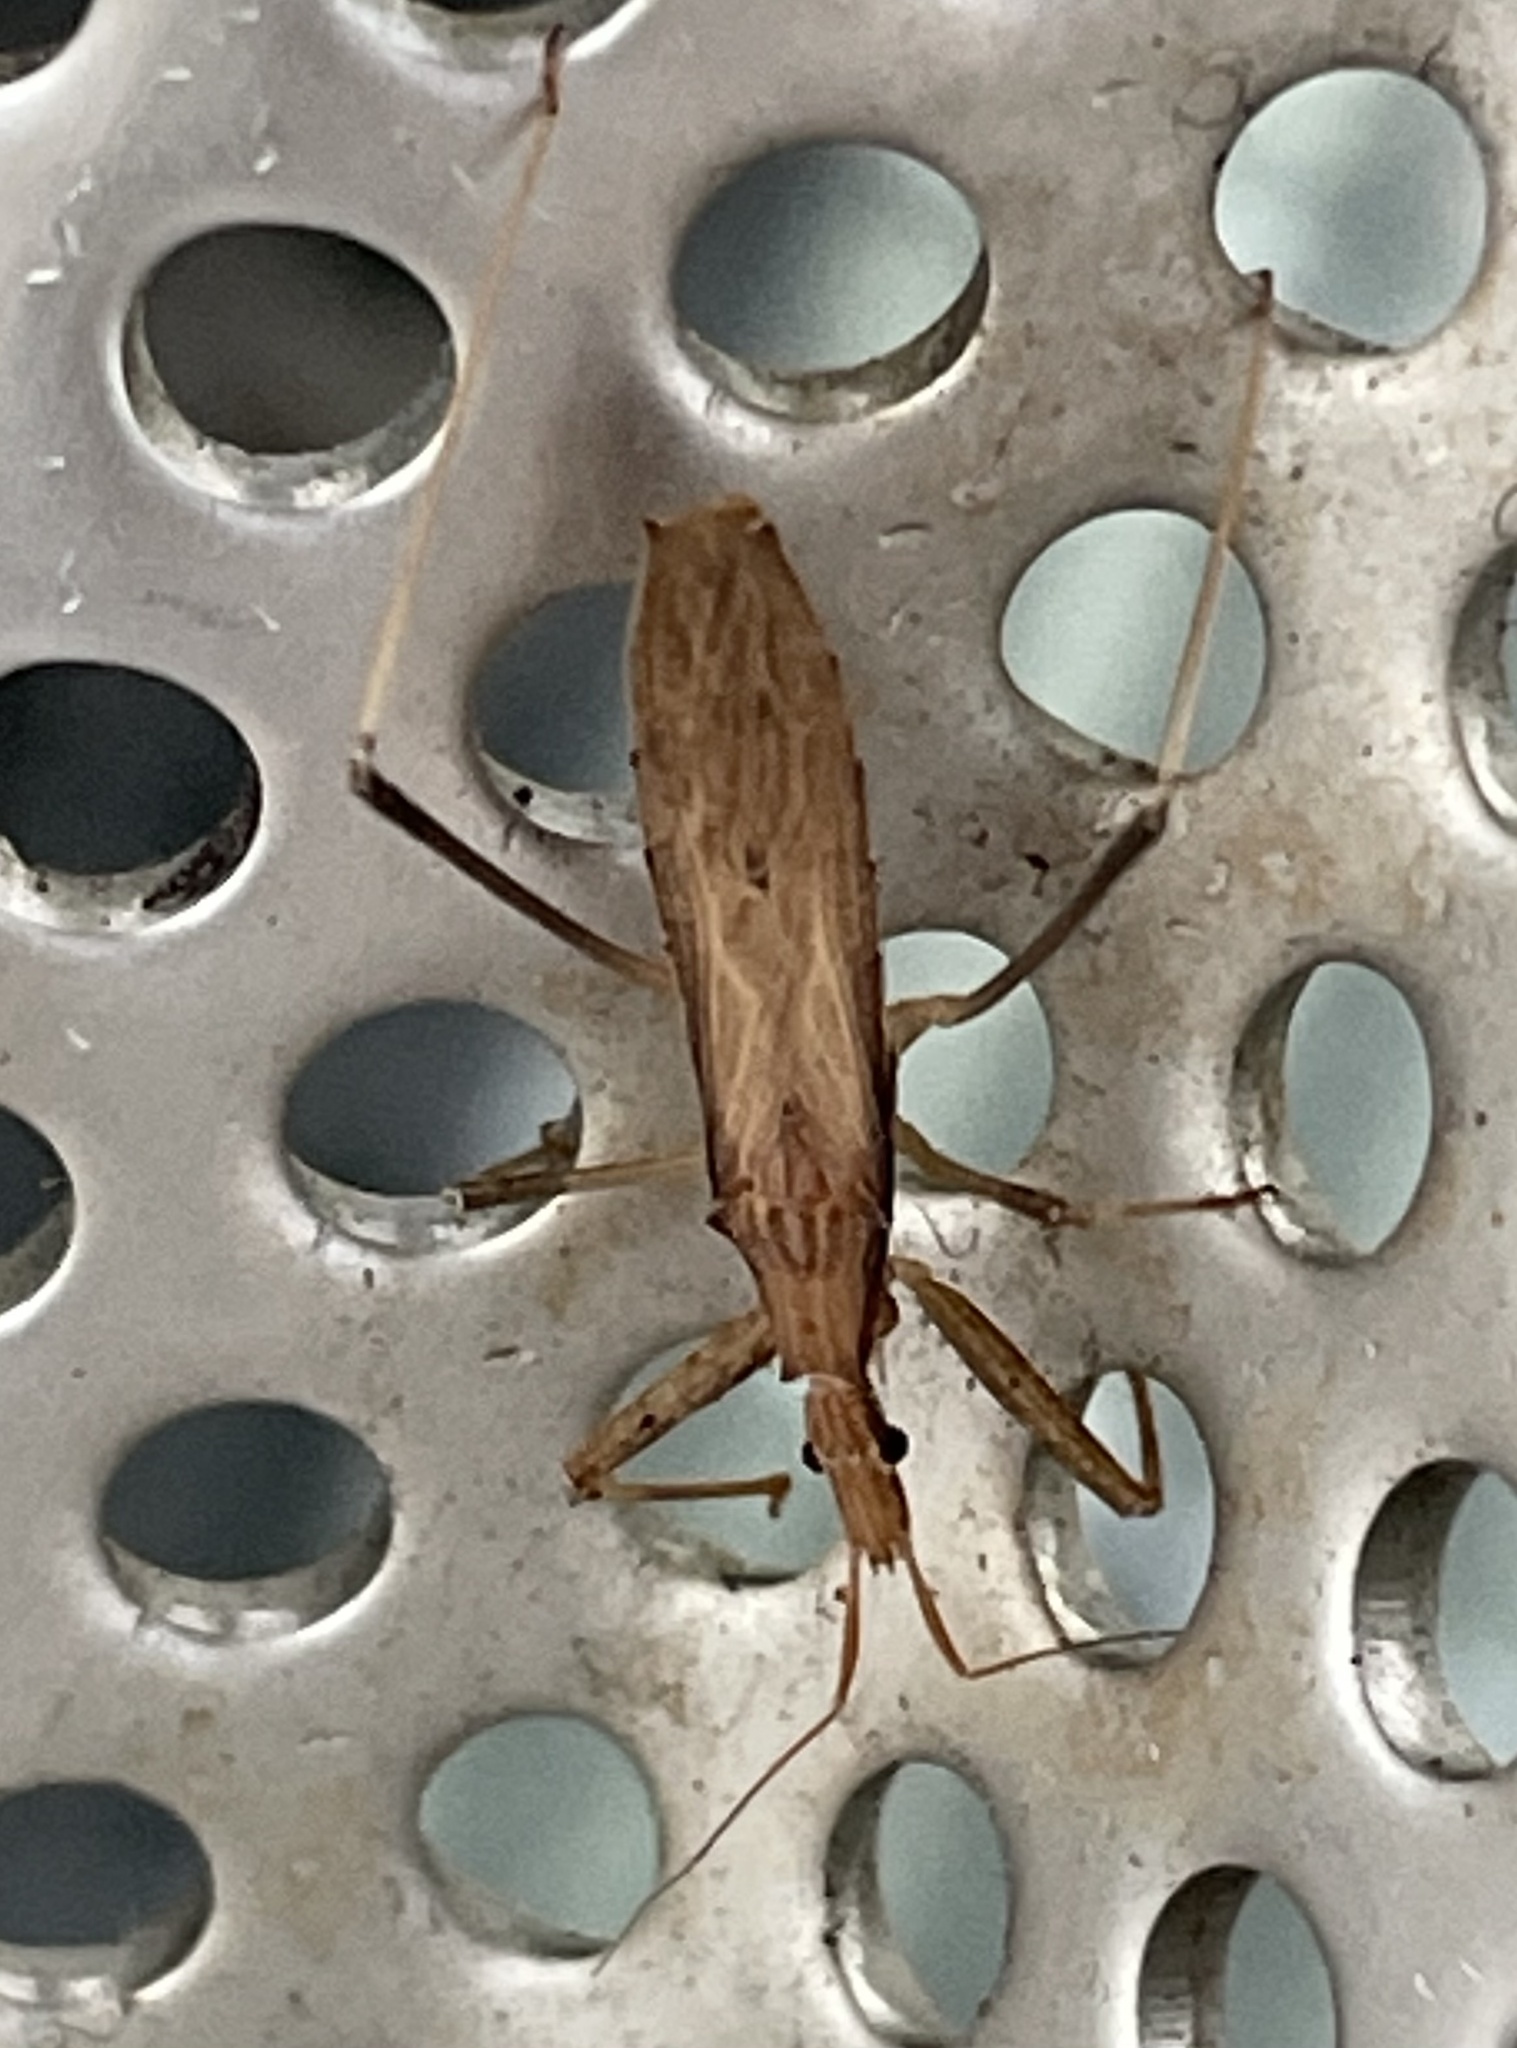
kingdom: Animalia
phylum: Arthropoda
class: Insecta
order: Hemiptera
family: Reduviidae
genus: Sastrapada
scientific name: Sastrapada australica
